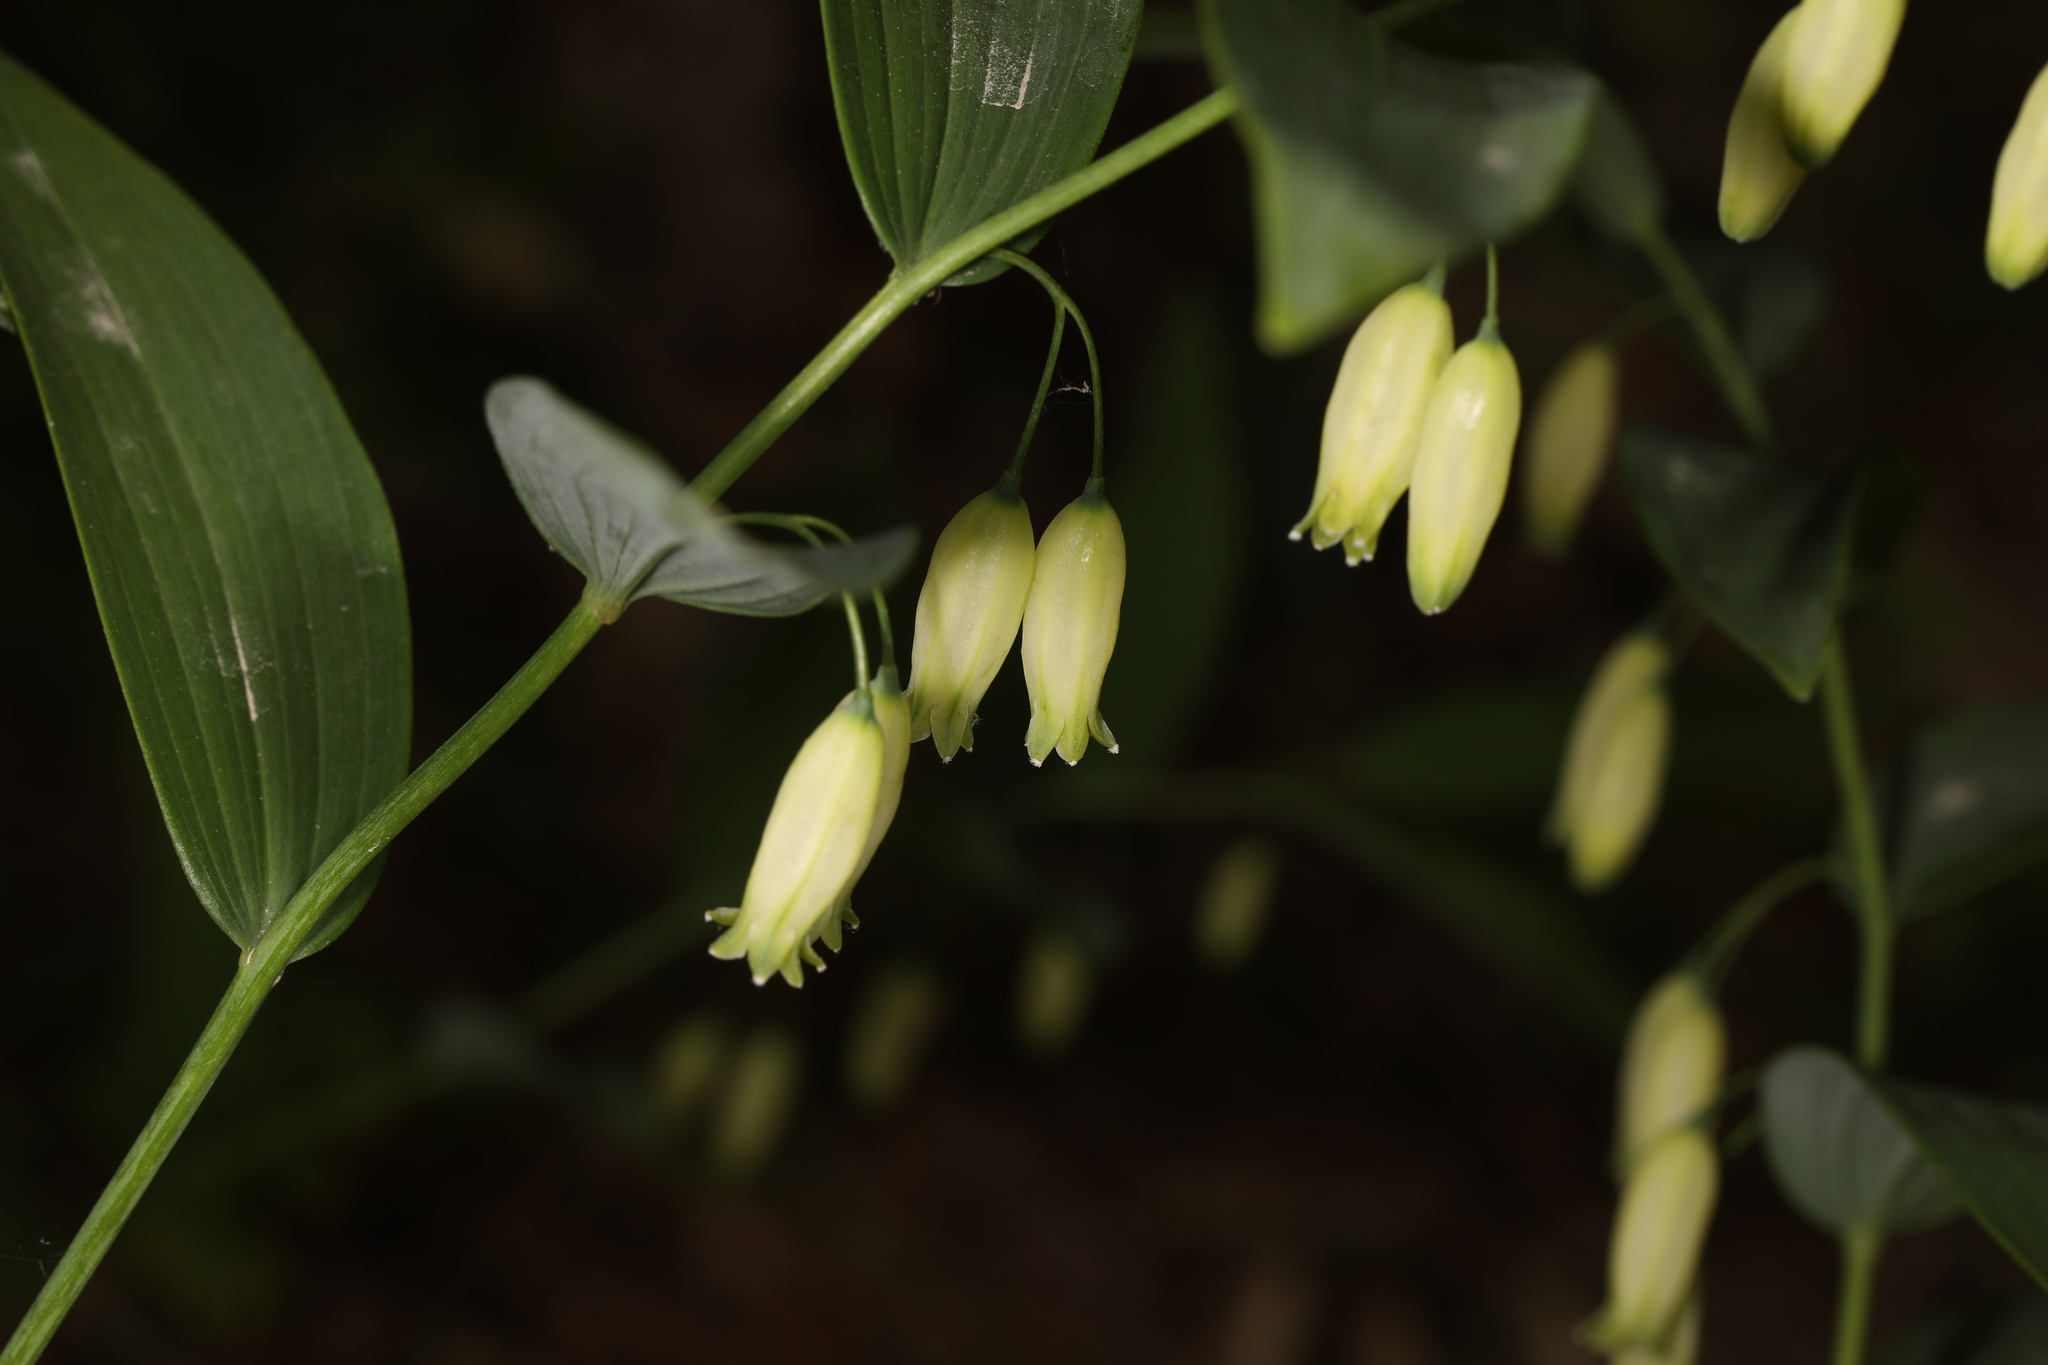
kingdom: Plantae
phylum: Tracheophyta
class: Liliopsida
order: Asparagales
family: Asparagaceae
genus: Polygonatum
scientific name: Polygonatum biflorum
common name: American solomon's-seal
